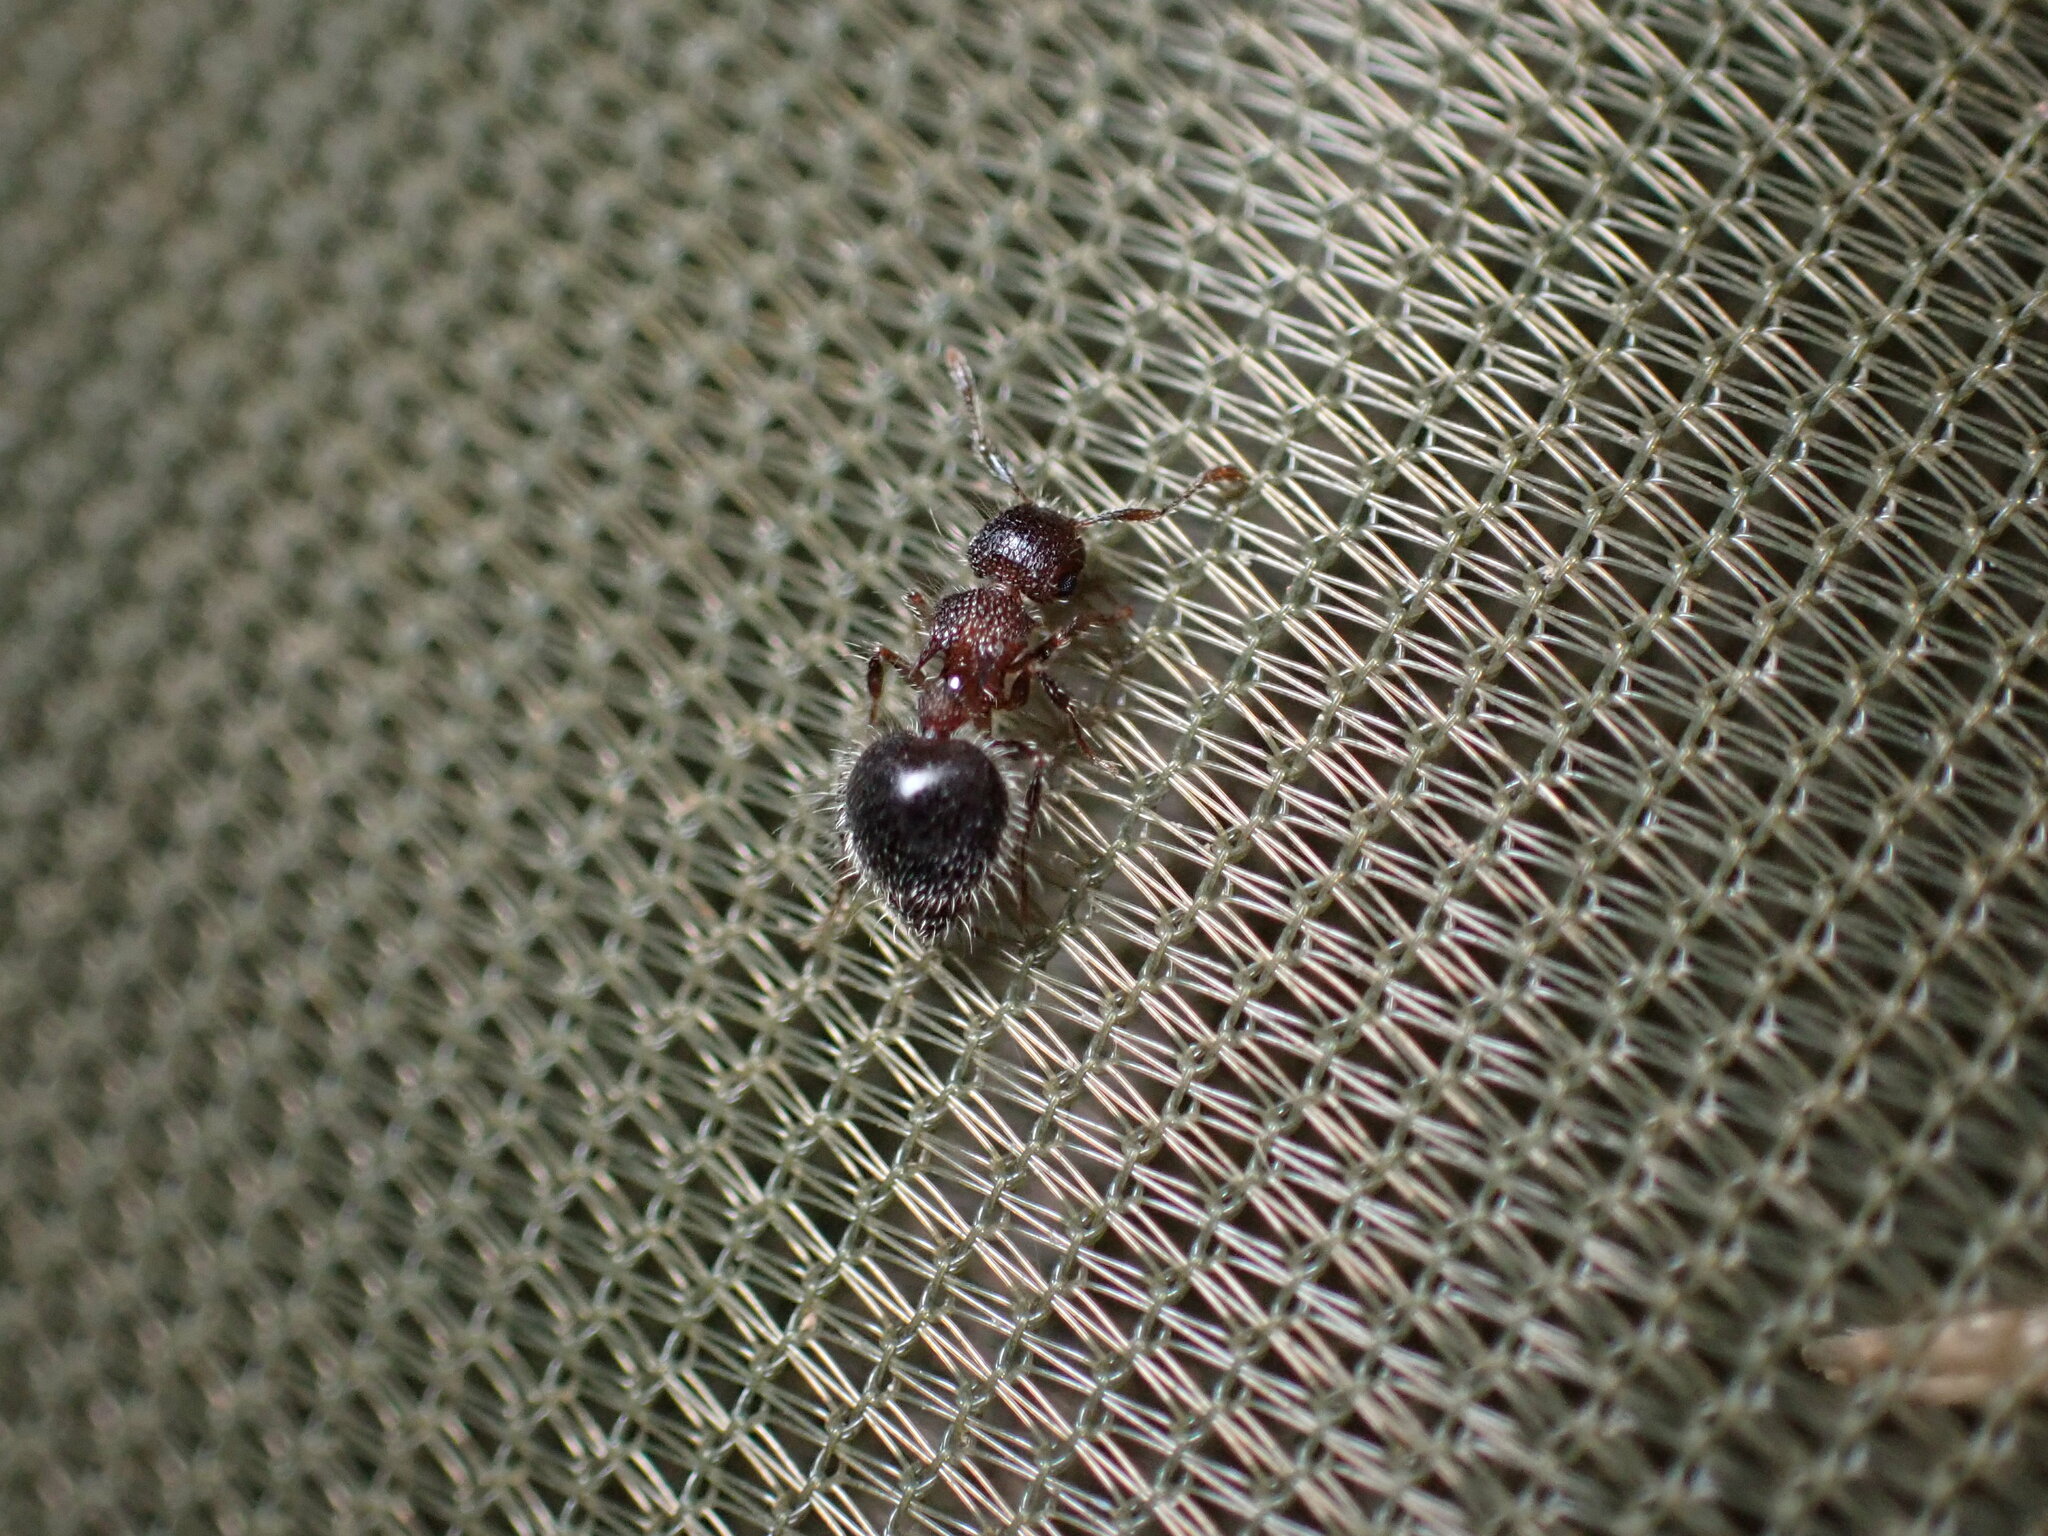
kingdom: Animalia
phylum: Arthropoda
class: Insecta
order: Hymenoptera
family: Formicidae
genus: Meranoplus
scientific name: Meranoplus bicolor
